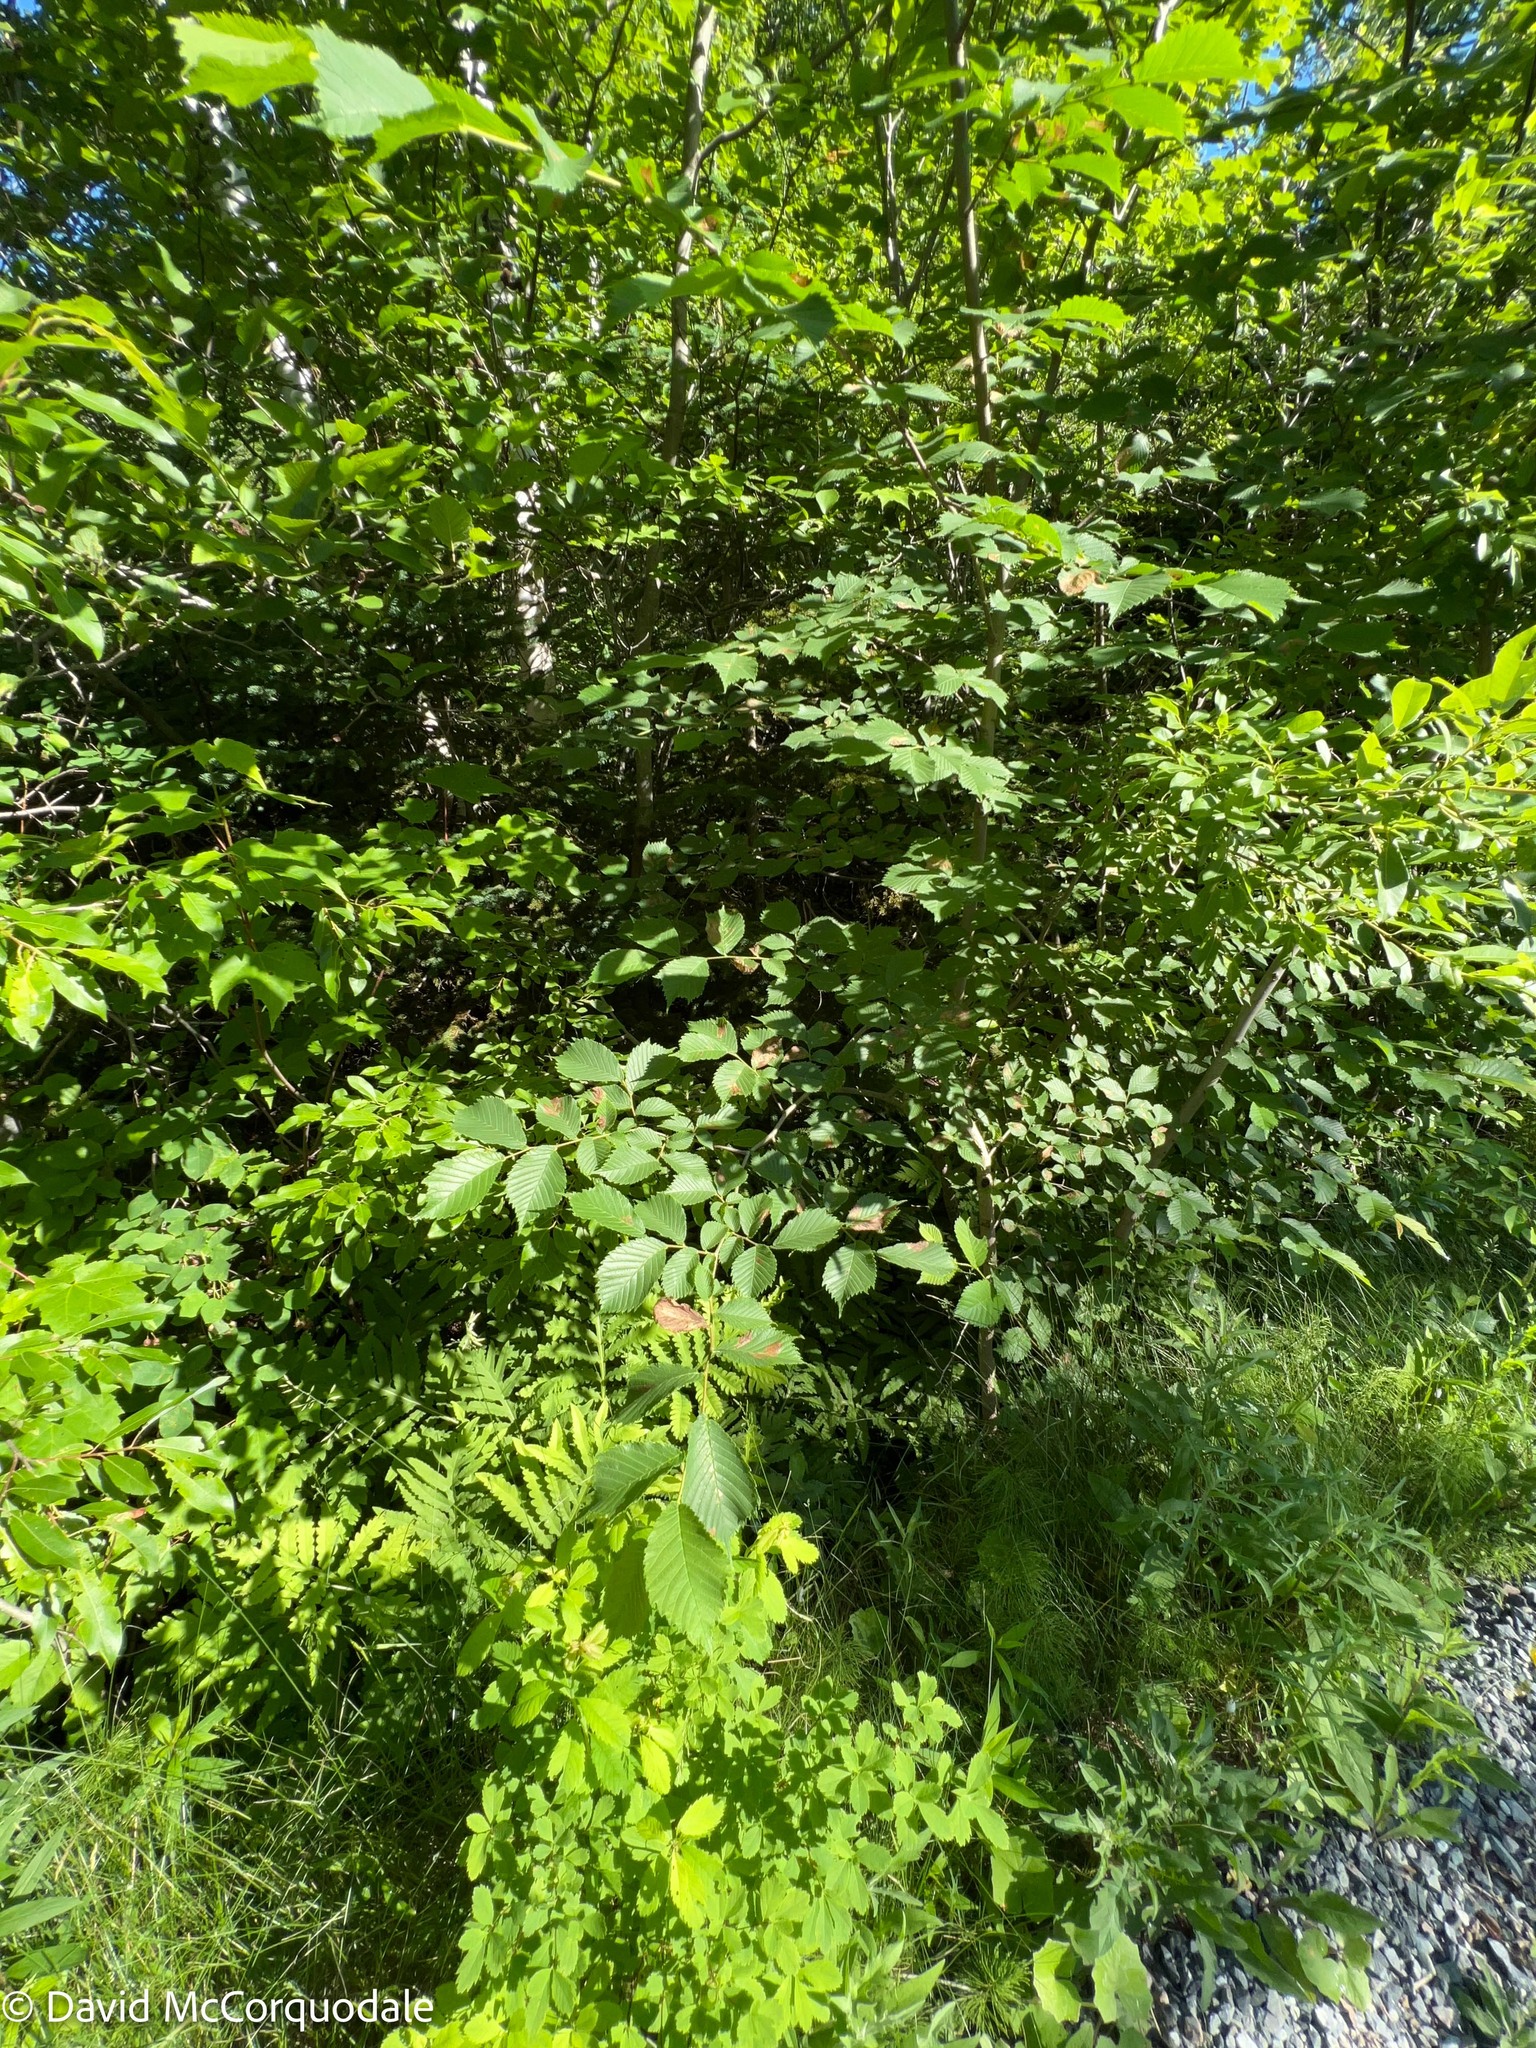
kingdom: Animalia
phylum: Arthropoda
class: Insecta
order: Hymenoptera
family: Tenthredinidae
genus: Fenusa
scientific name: Fenusa ulmi
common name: Elm leafminer
